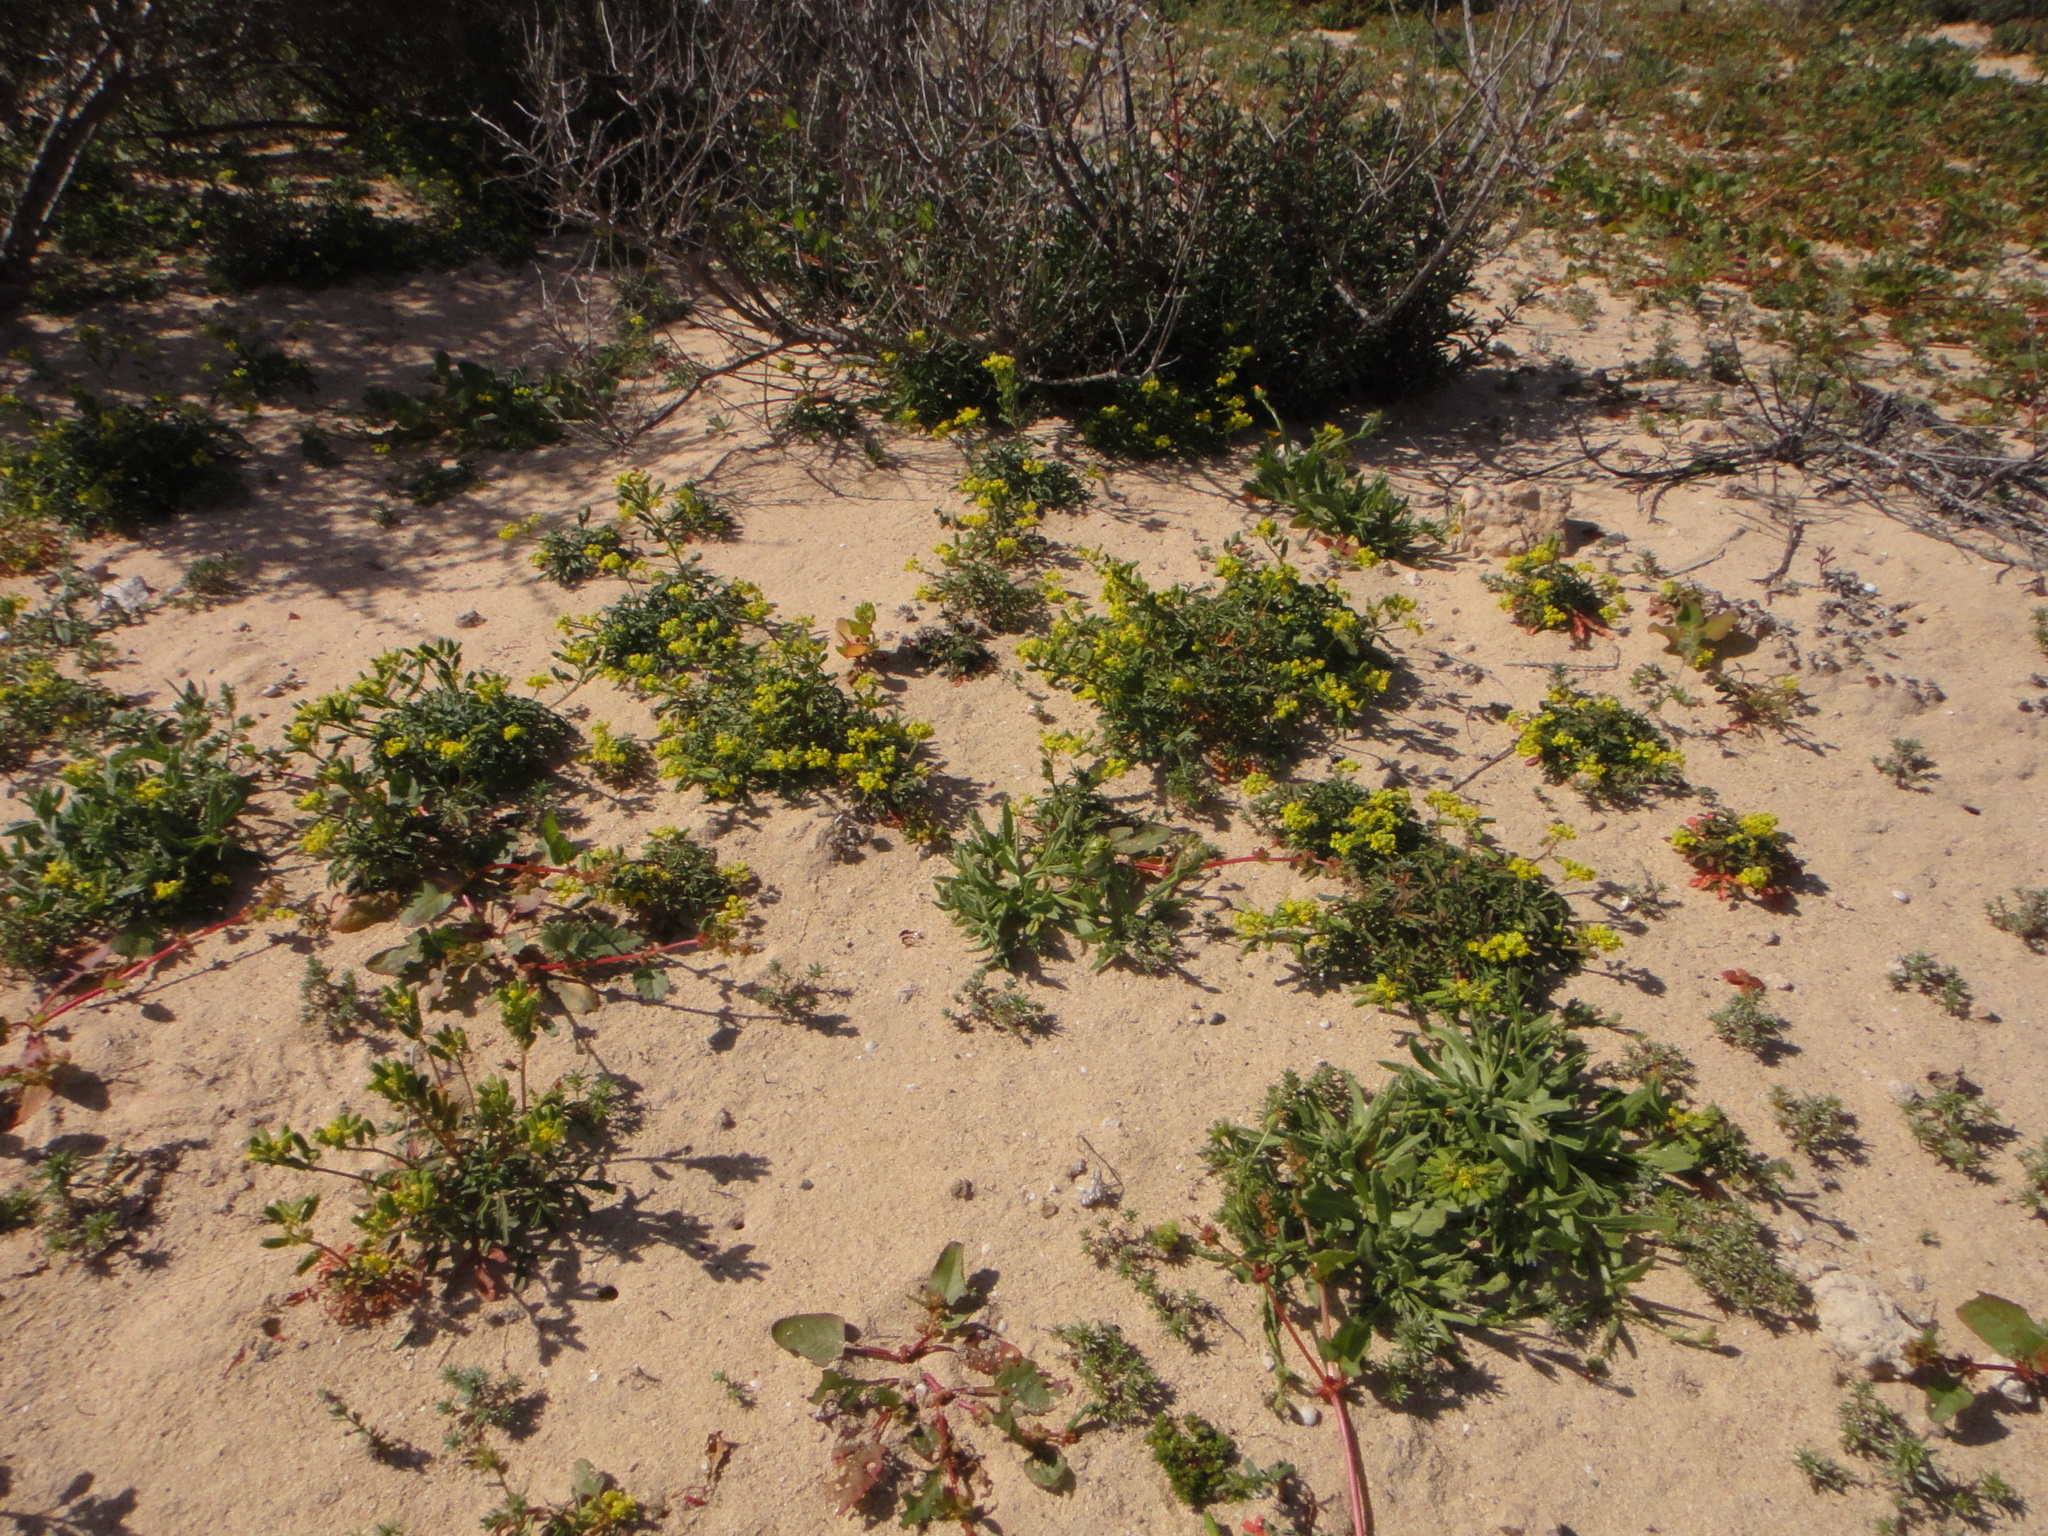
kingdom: Plantae
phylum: Tracheophyta
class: Magnoliopsida
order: Brassicales
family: Resedaceae
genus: Reseda
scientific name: Reseda crystallina
